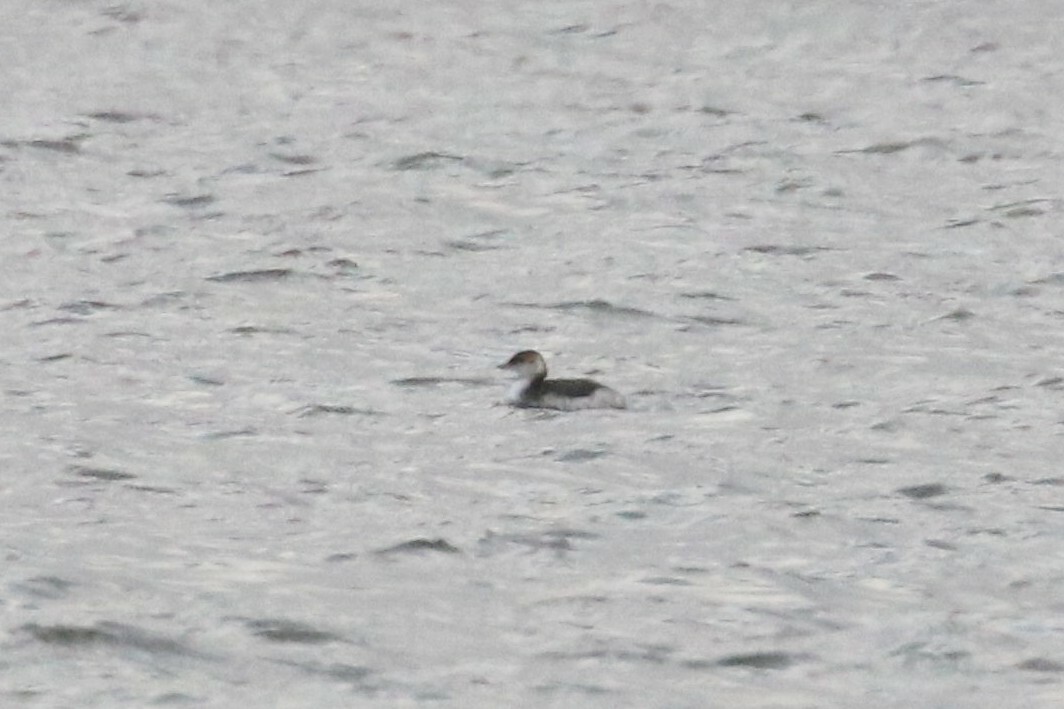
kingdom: Animalia
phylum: Chordata
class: Aves
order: Podicipediformes
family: Podicipedidae
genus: Podiceps
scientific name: Podiceps auritus
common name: Horned grebe
